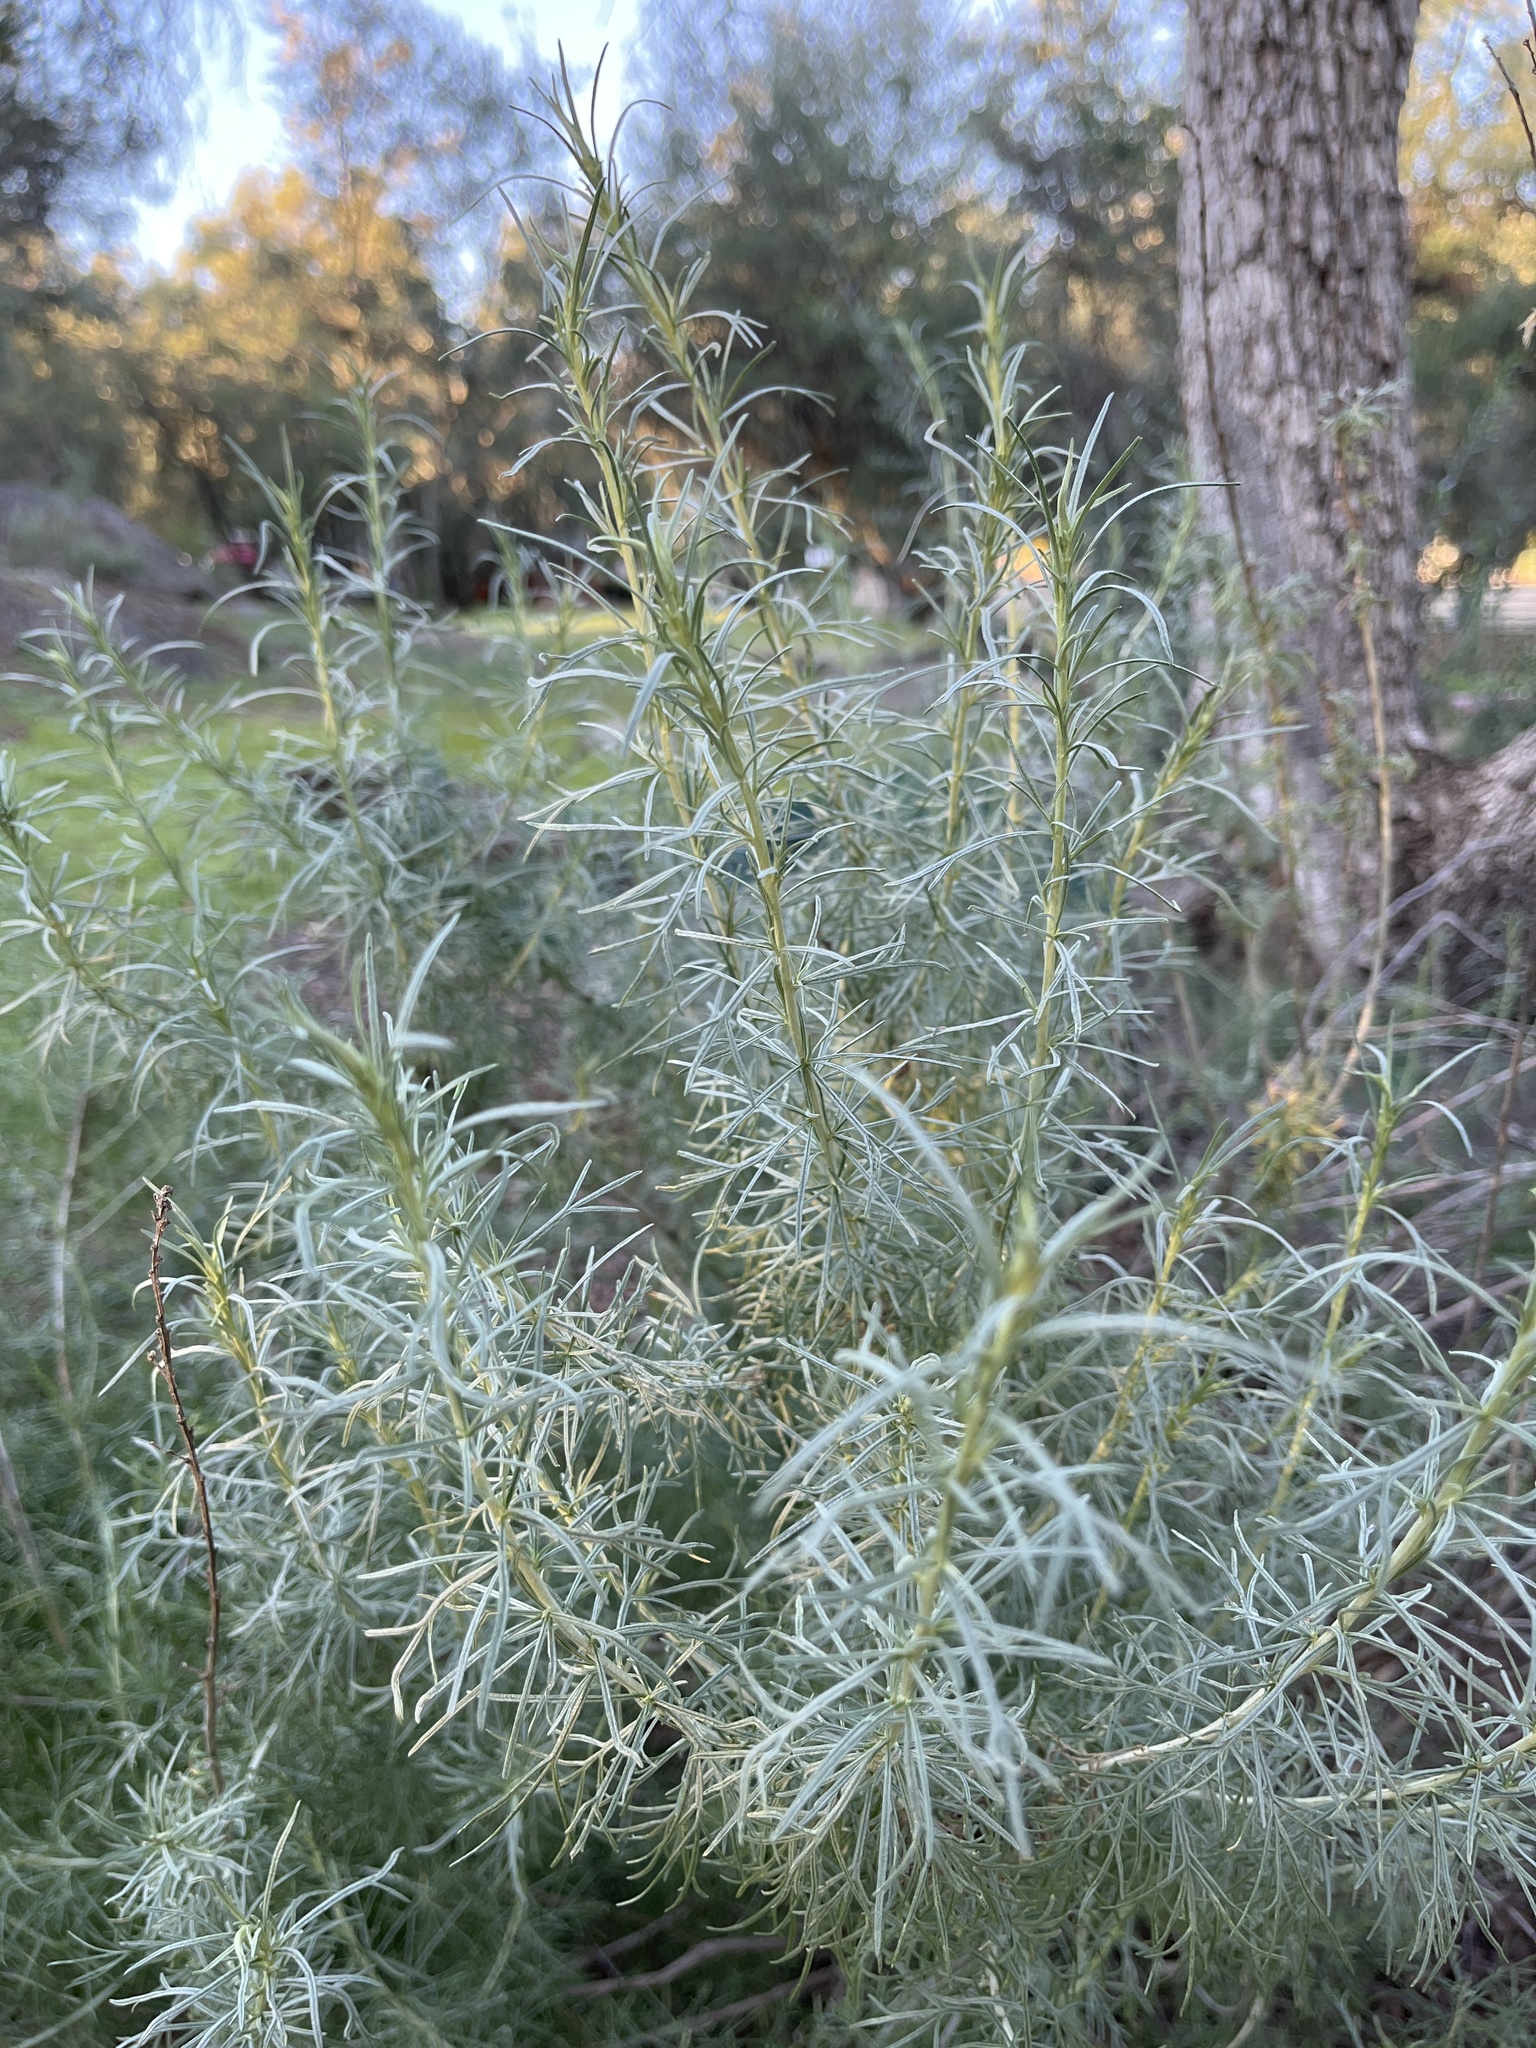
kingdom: Plantae
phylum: Tracheophyta
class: Magnoliopsida
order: Asterales
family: Asteraceae
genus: Artemisia
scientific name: Artemisia californica
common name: California sagebrush
